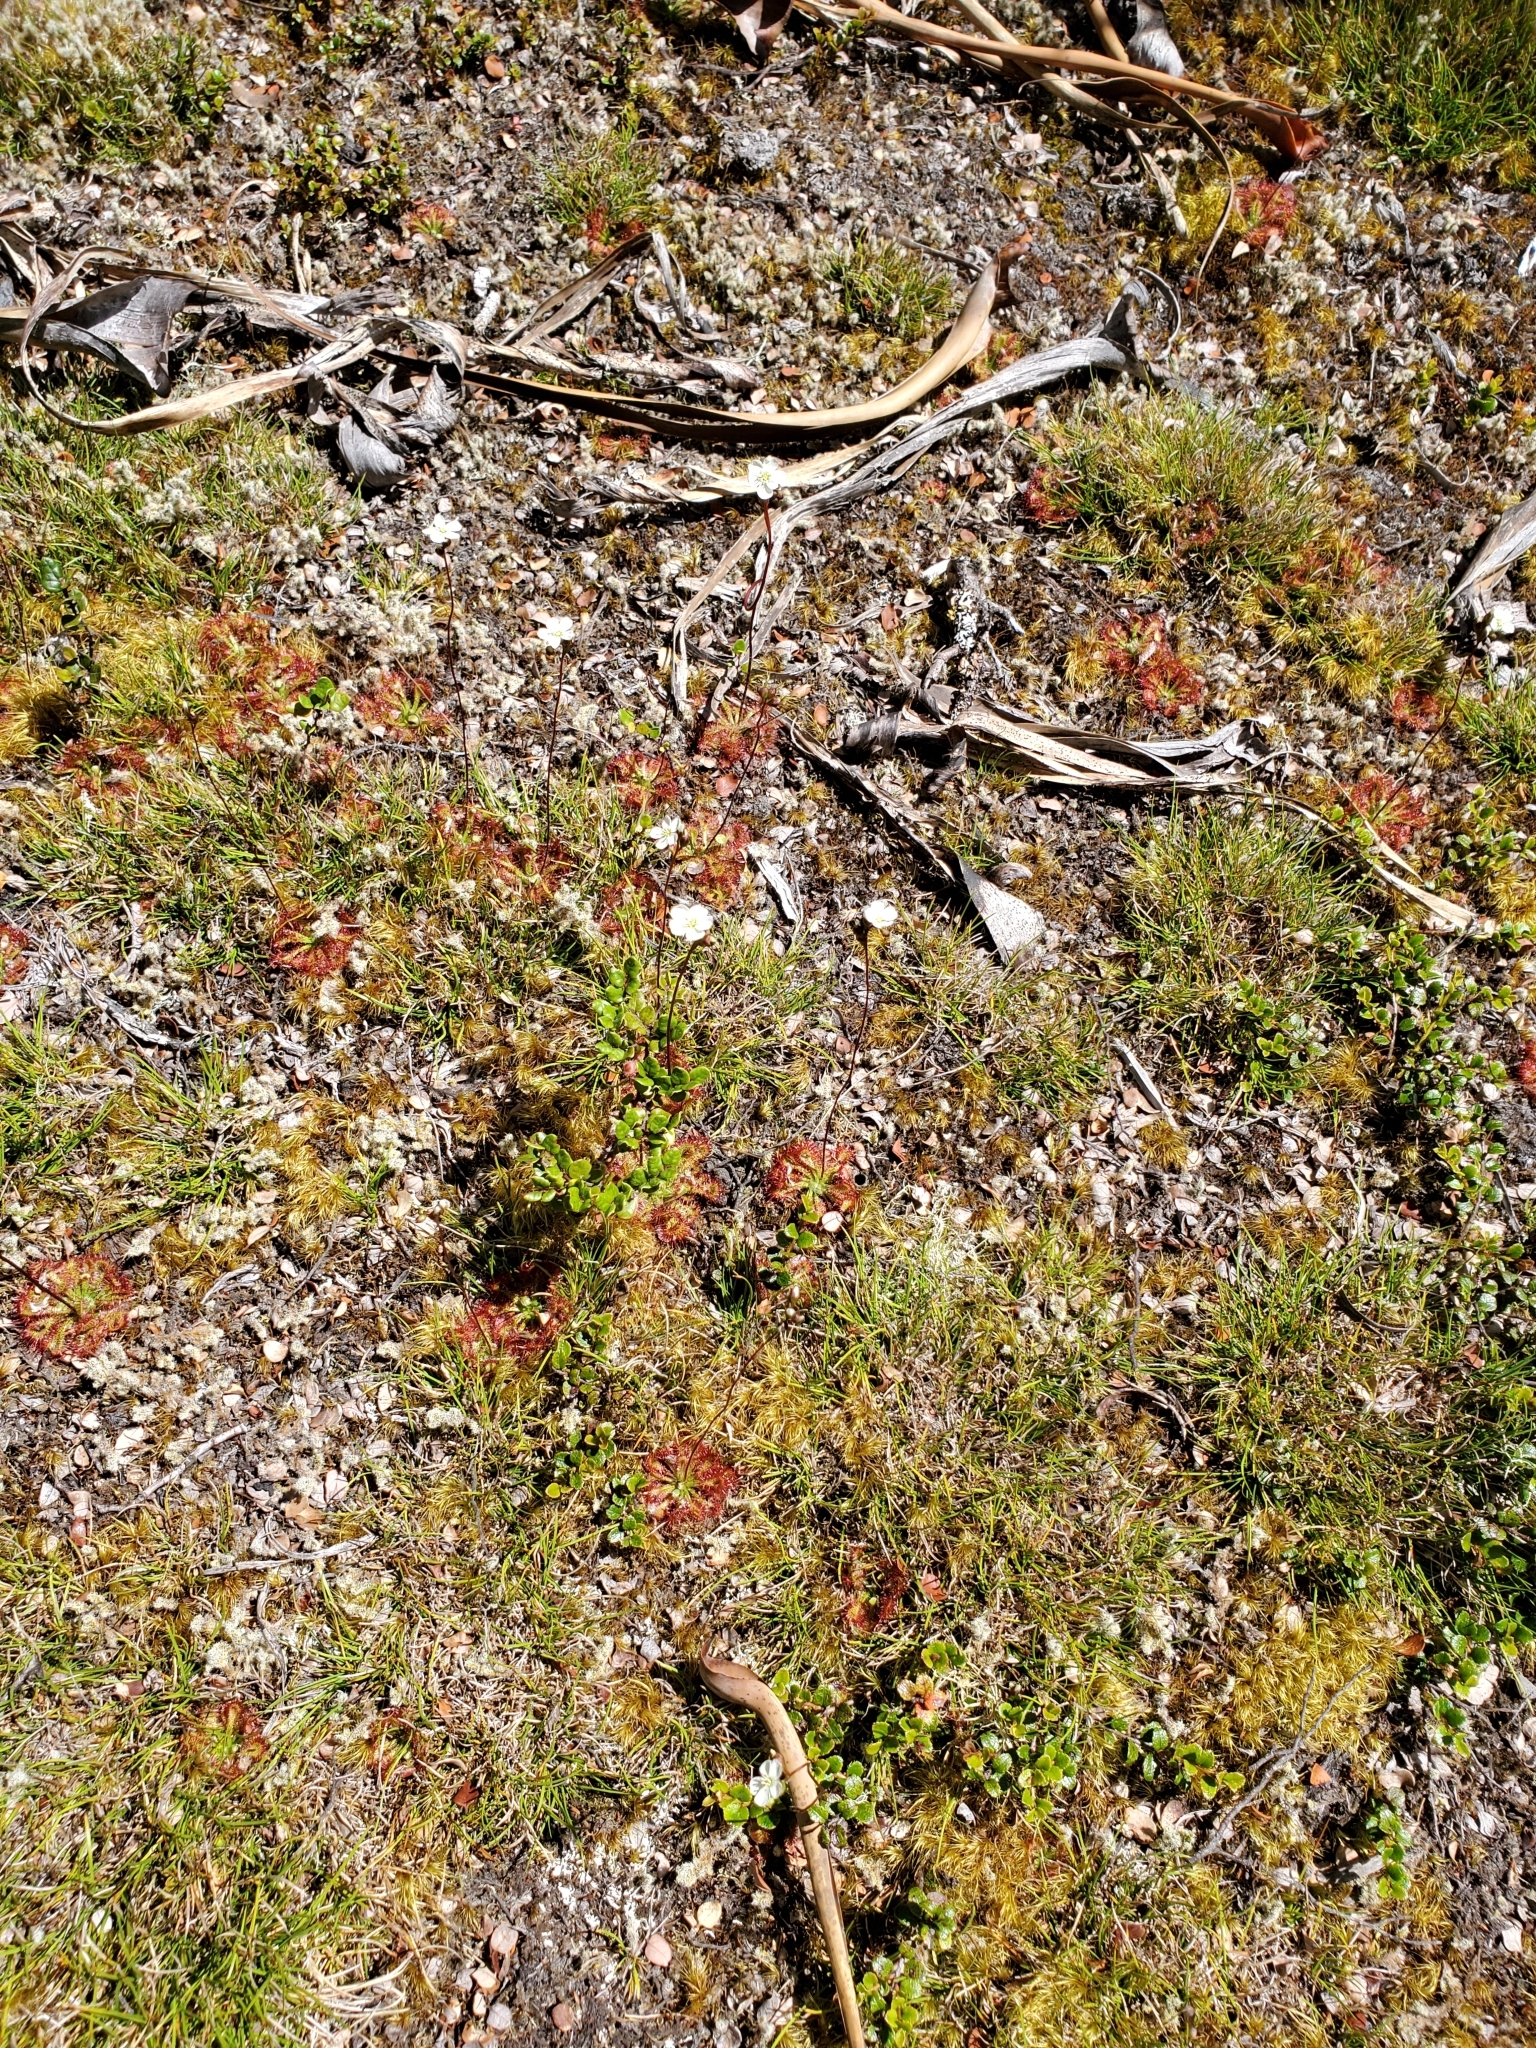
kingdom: Plantae
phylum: Tracheophyta
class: Magnoliopsida
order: Caryophyllales
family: Droseraceae
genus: Drosera
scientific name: Drosera spatulata
